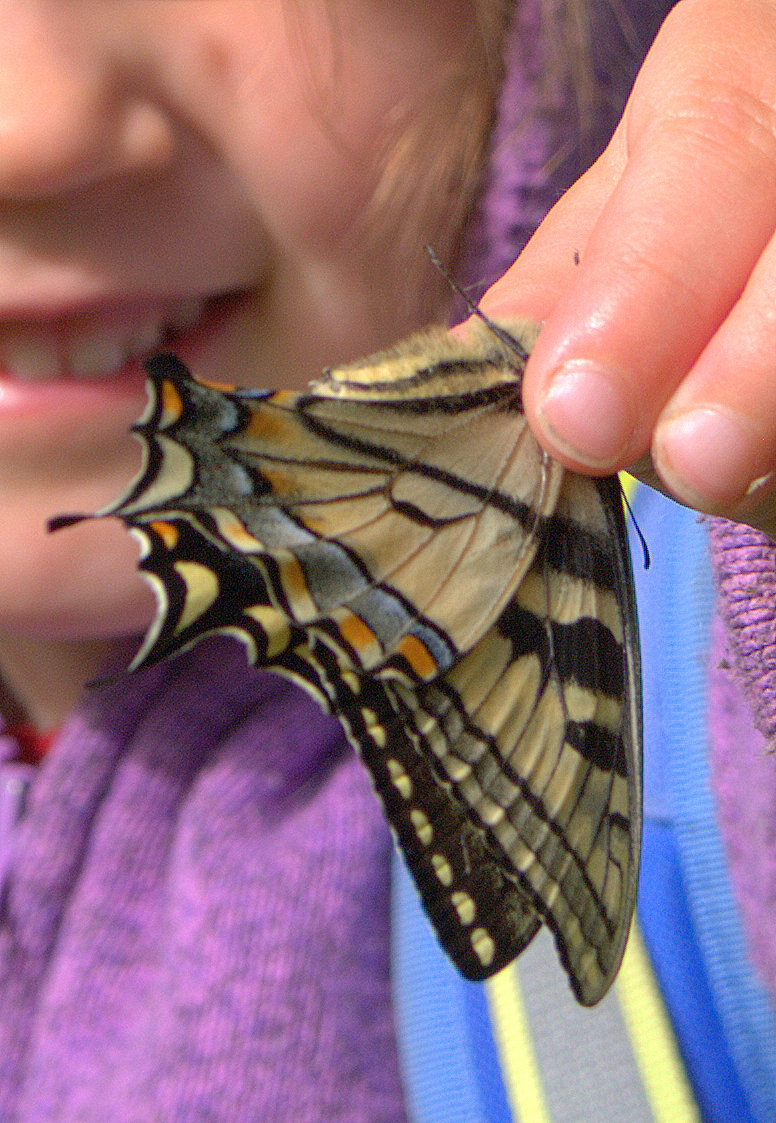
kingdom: Animalia
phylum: Arthropoda
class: Insecta
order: Lepidoptera
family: Papilionidae
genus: Papilio
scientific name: Papilio canadensis
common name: Canadian tiger swallowtail
